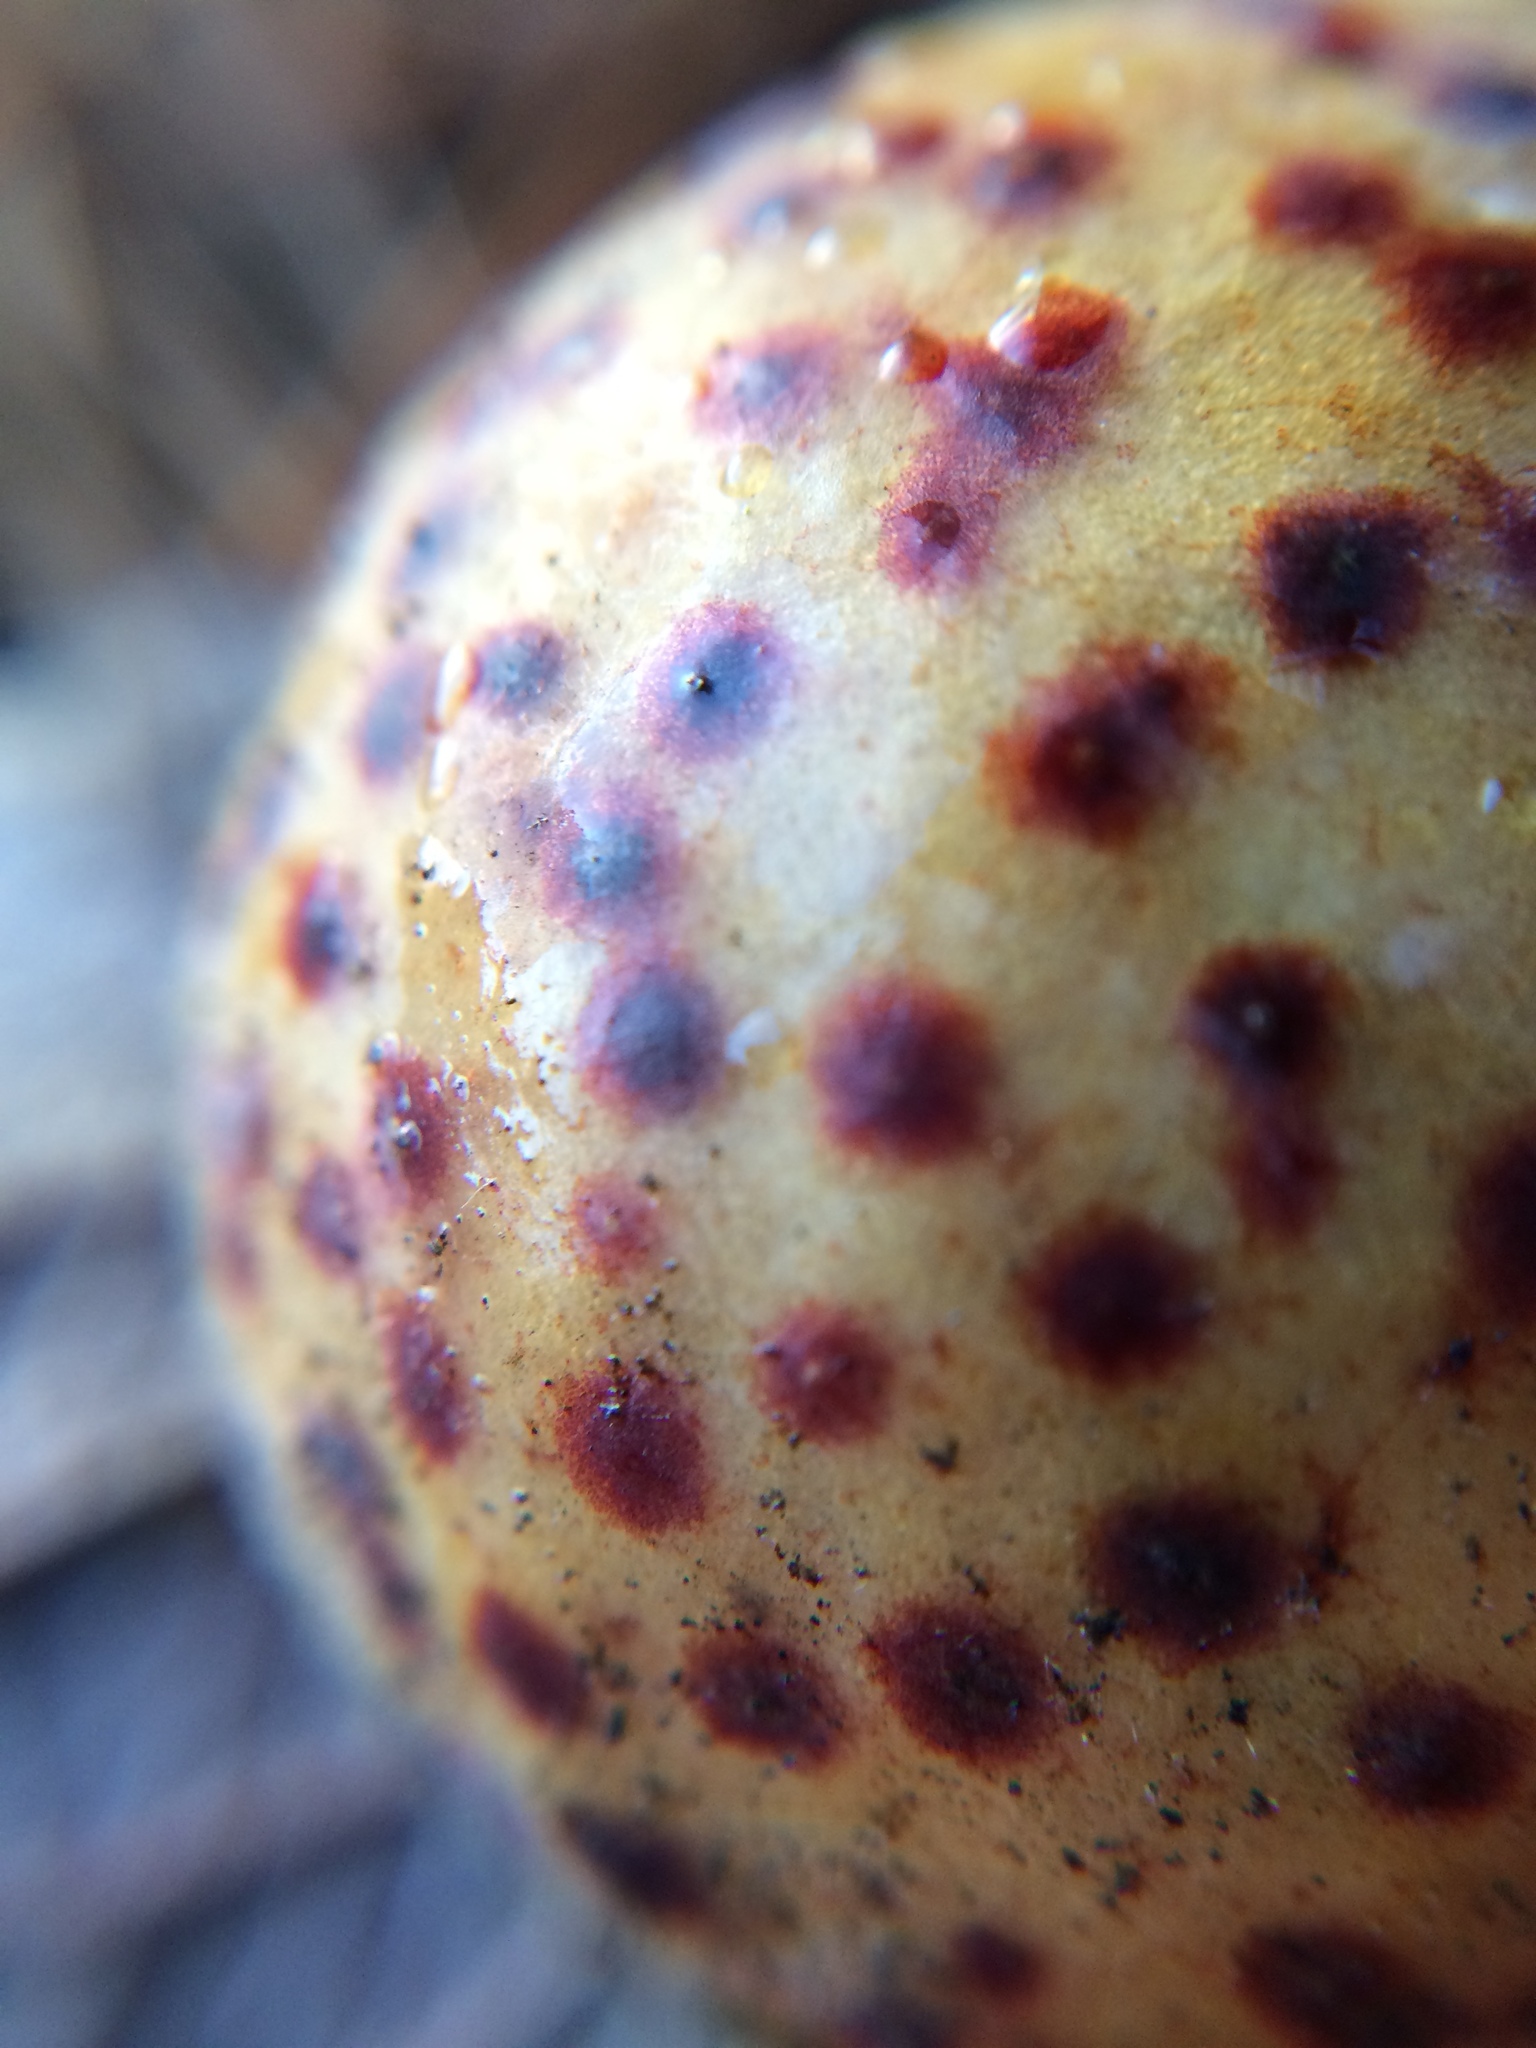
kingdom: Animalia
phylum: Arthropoda
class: Insecta
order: Hymenoptera
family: Cynipidae
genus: Cynips
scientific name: Cynips
